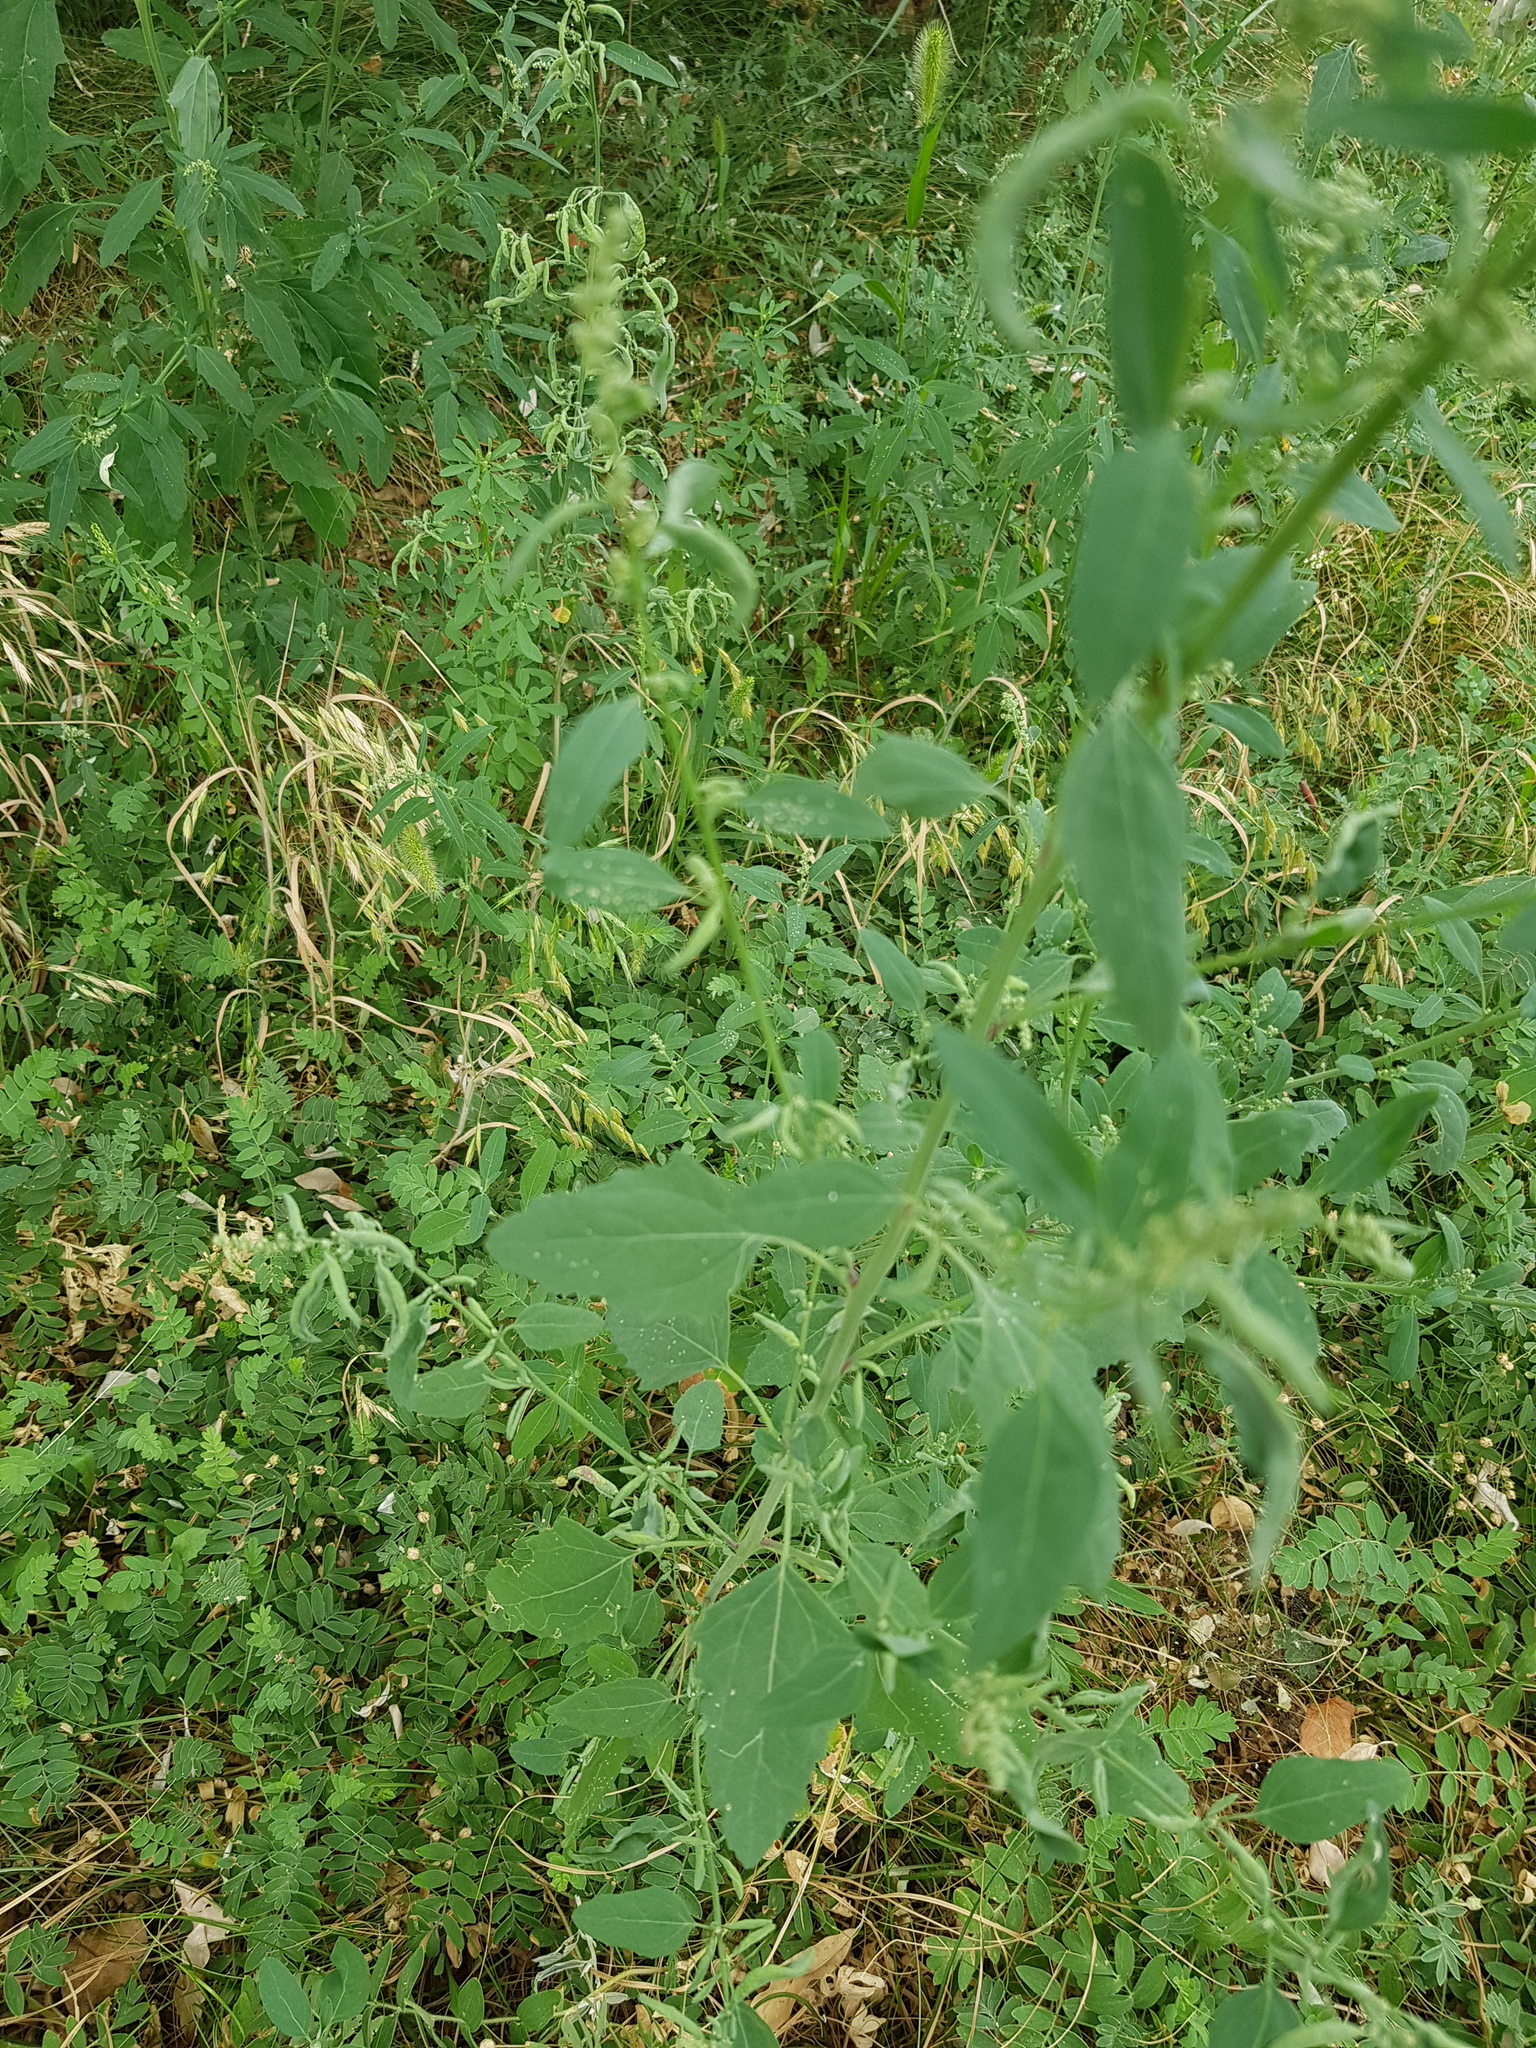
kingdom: Plantae
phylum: Tracheophyta
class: Magnoliopsida
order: Caryophyllales
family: Amaranthaceae
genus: Chenopodium
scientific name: Chenopodium album
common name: Fat-hen
